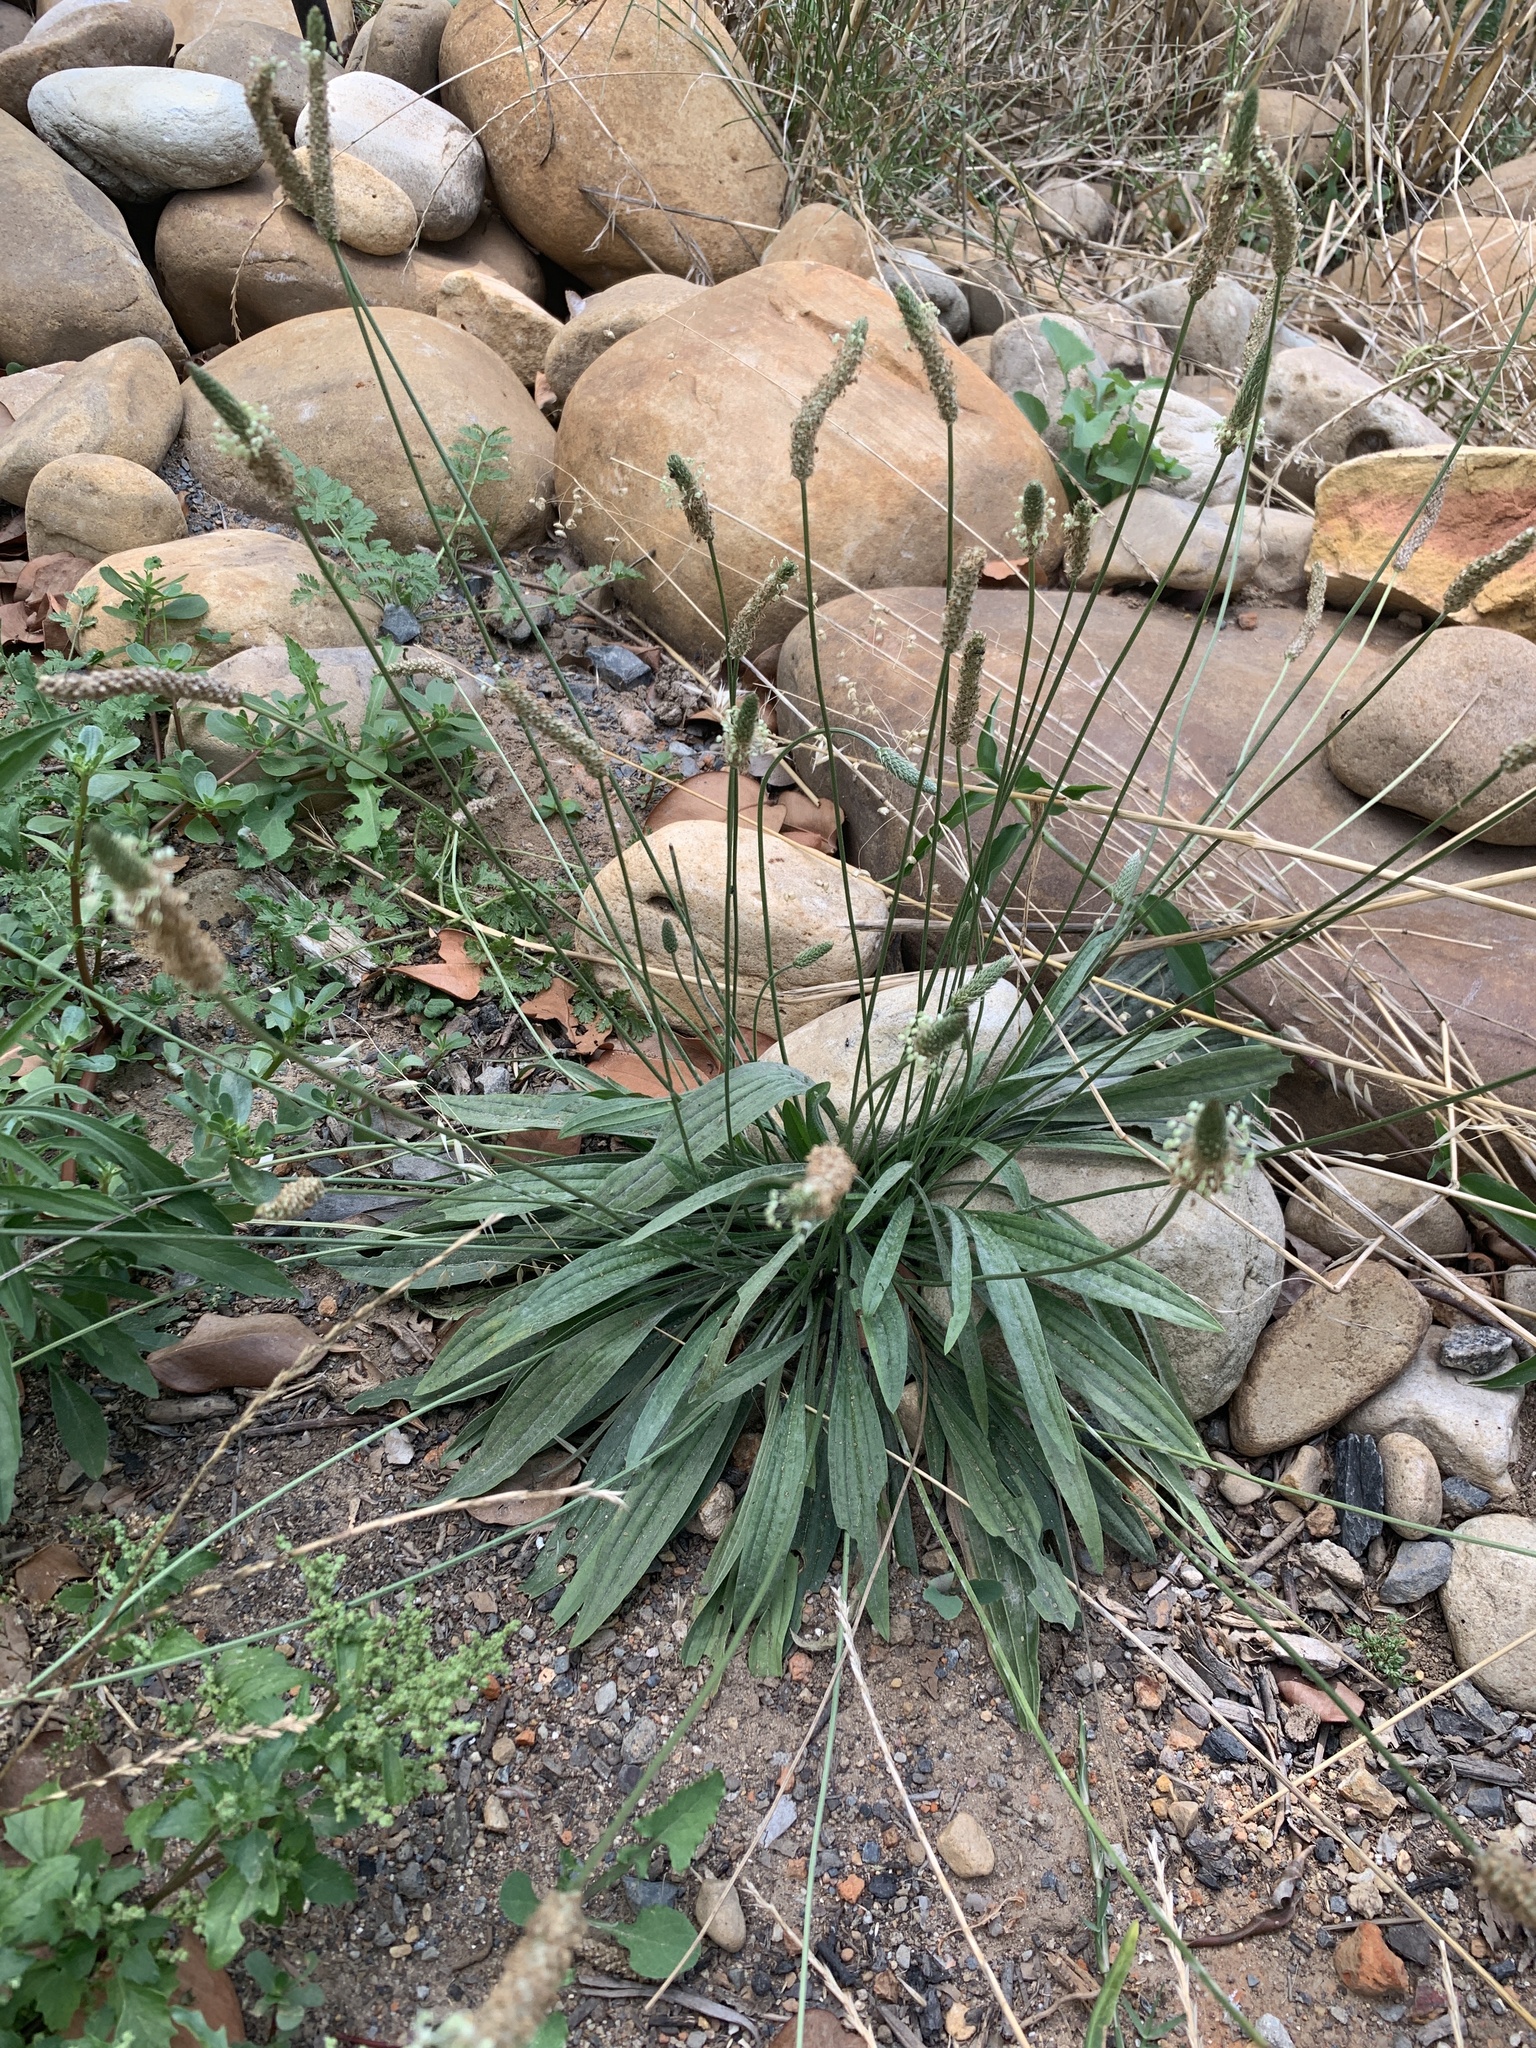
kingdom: Plantae
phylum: Tracheophyta
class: Magnoliopsida
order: Lamiales
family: Plantaginaceae
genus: Plantago
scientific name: Plantago lanceolata
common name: Ribwort plantain
